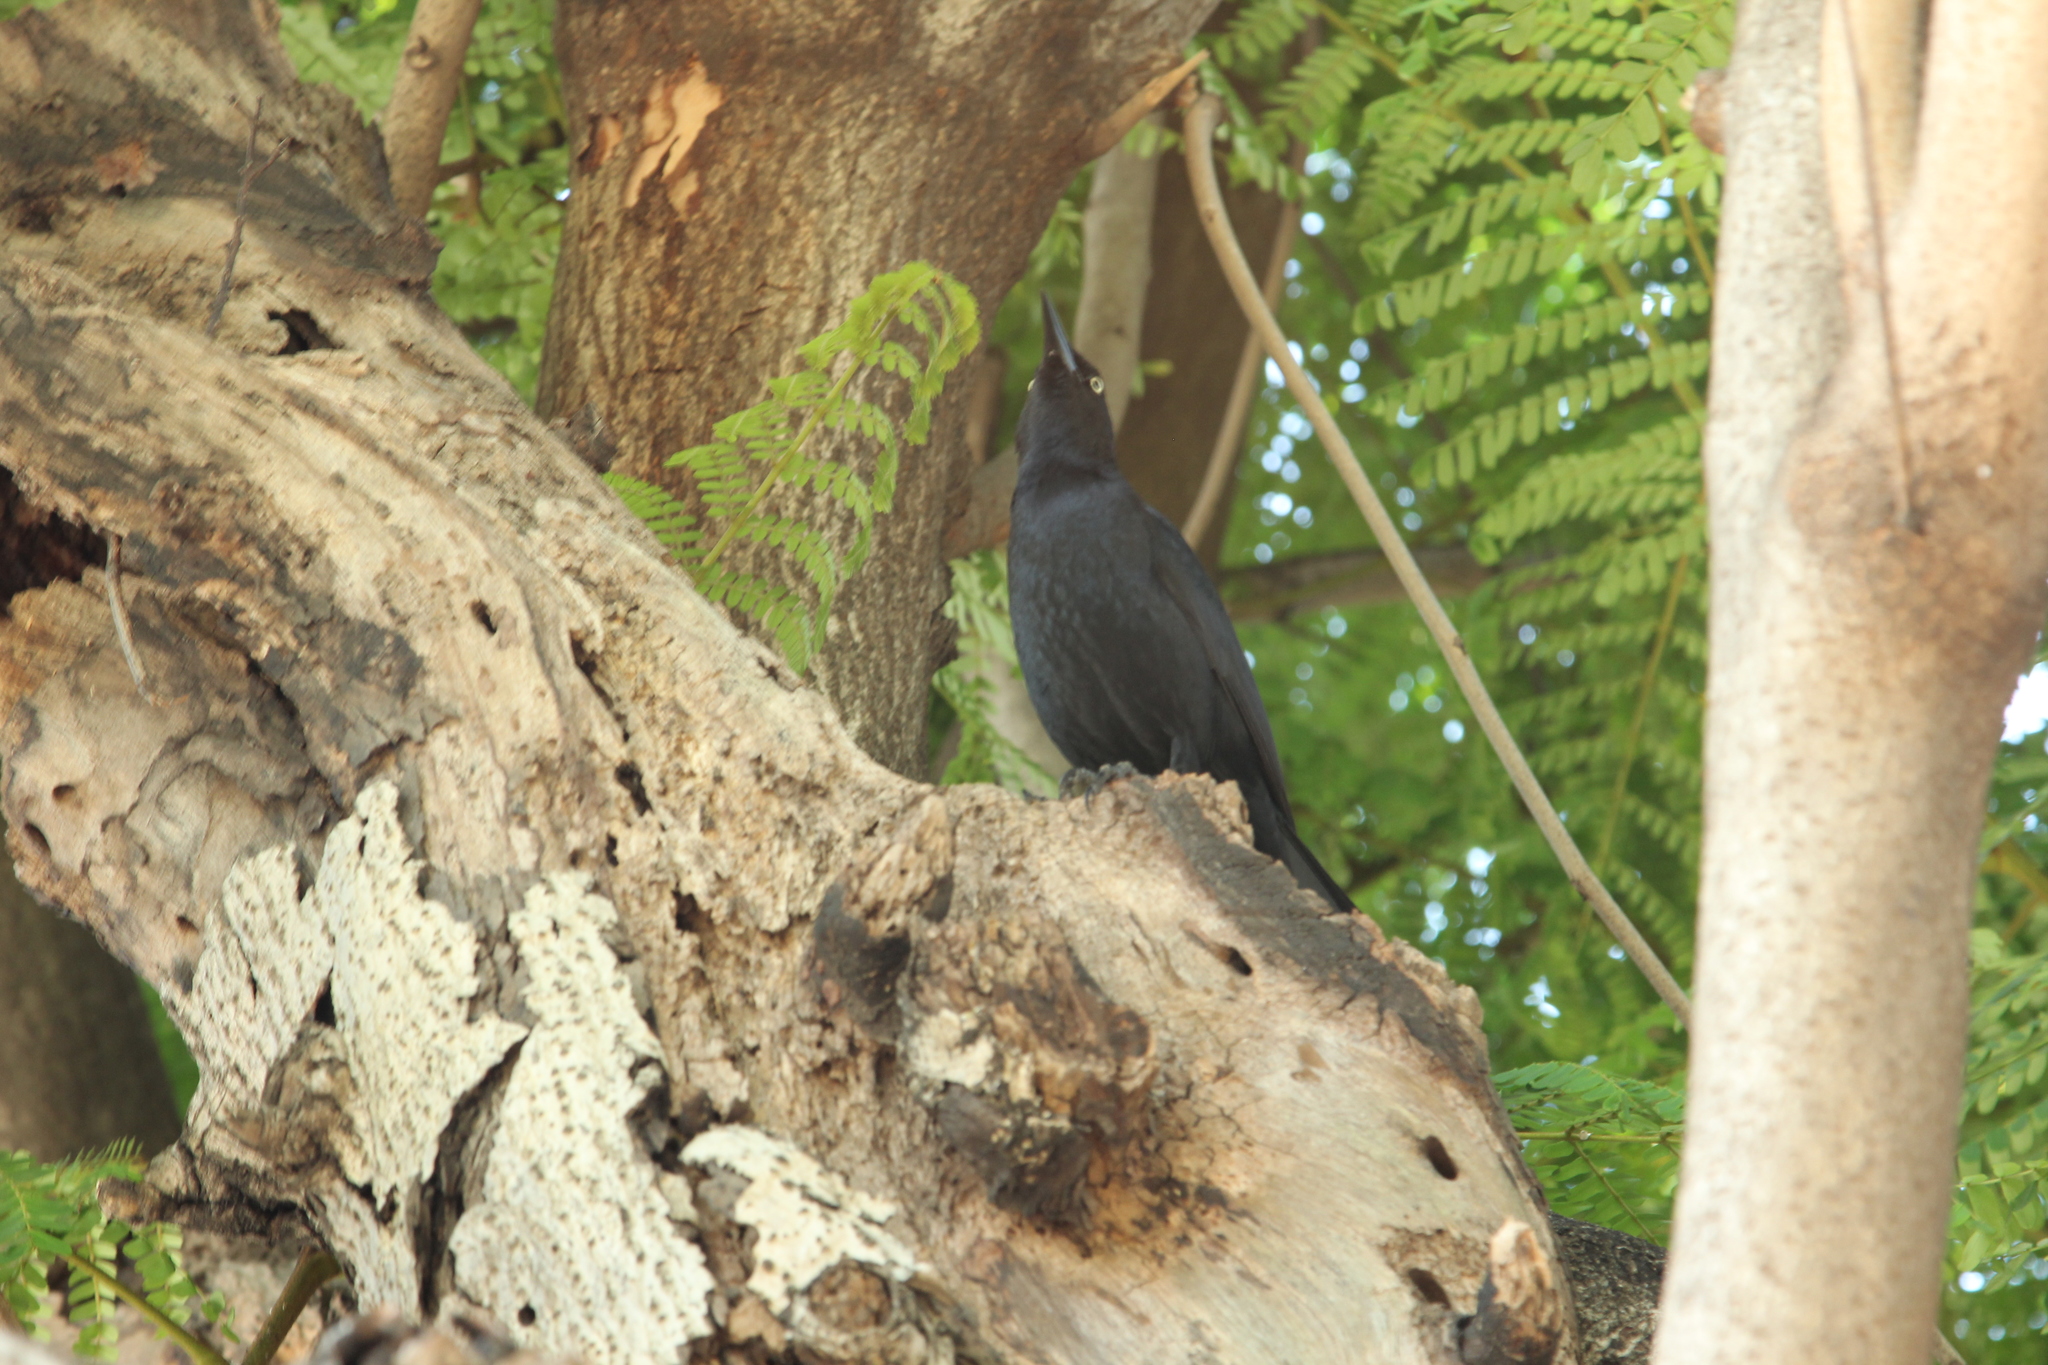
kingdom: Animalia
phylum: Chordata
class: Aves
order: Passeriformes
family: Icteridae
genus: Quiscalus
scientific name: Quiscalus niger
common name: Greater antillean grackle
